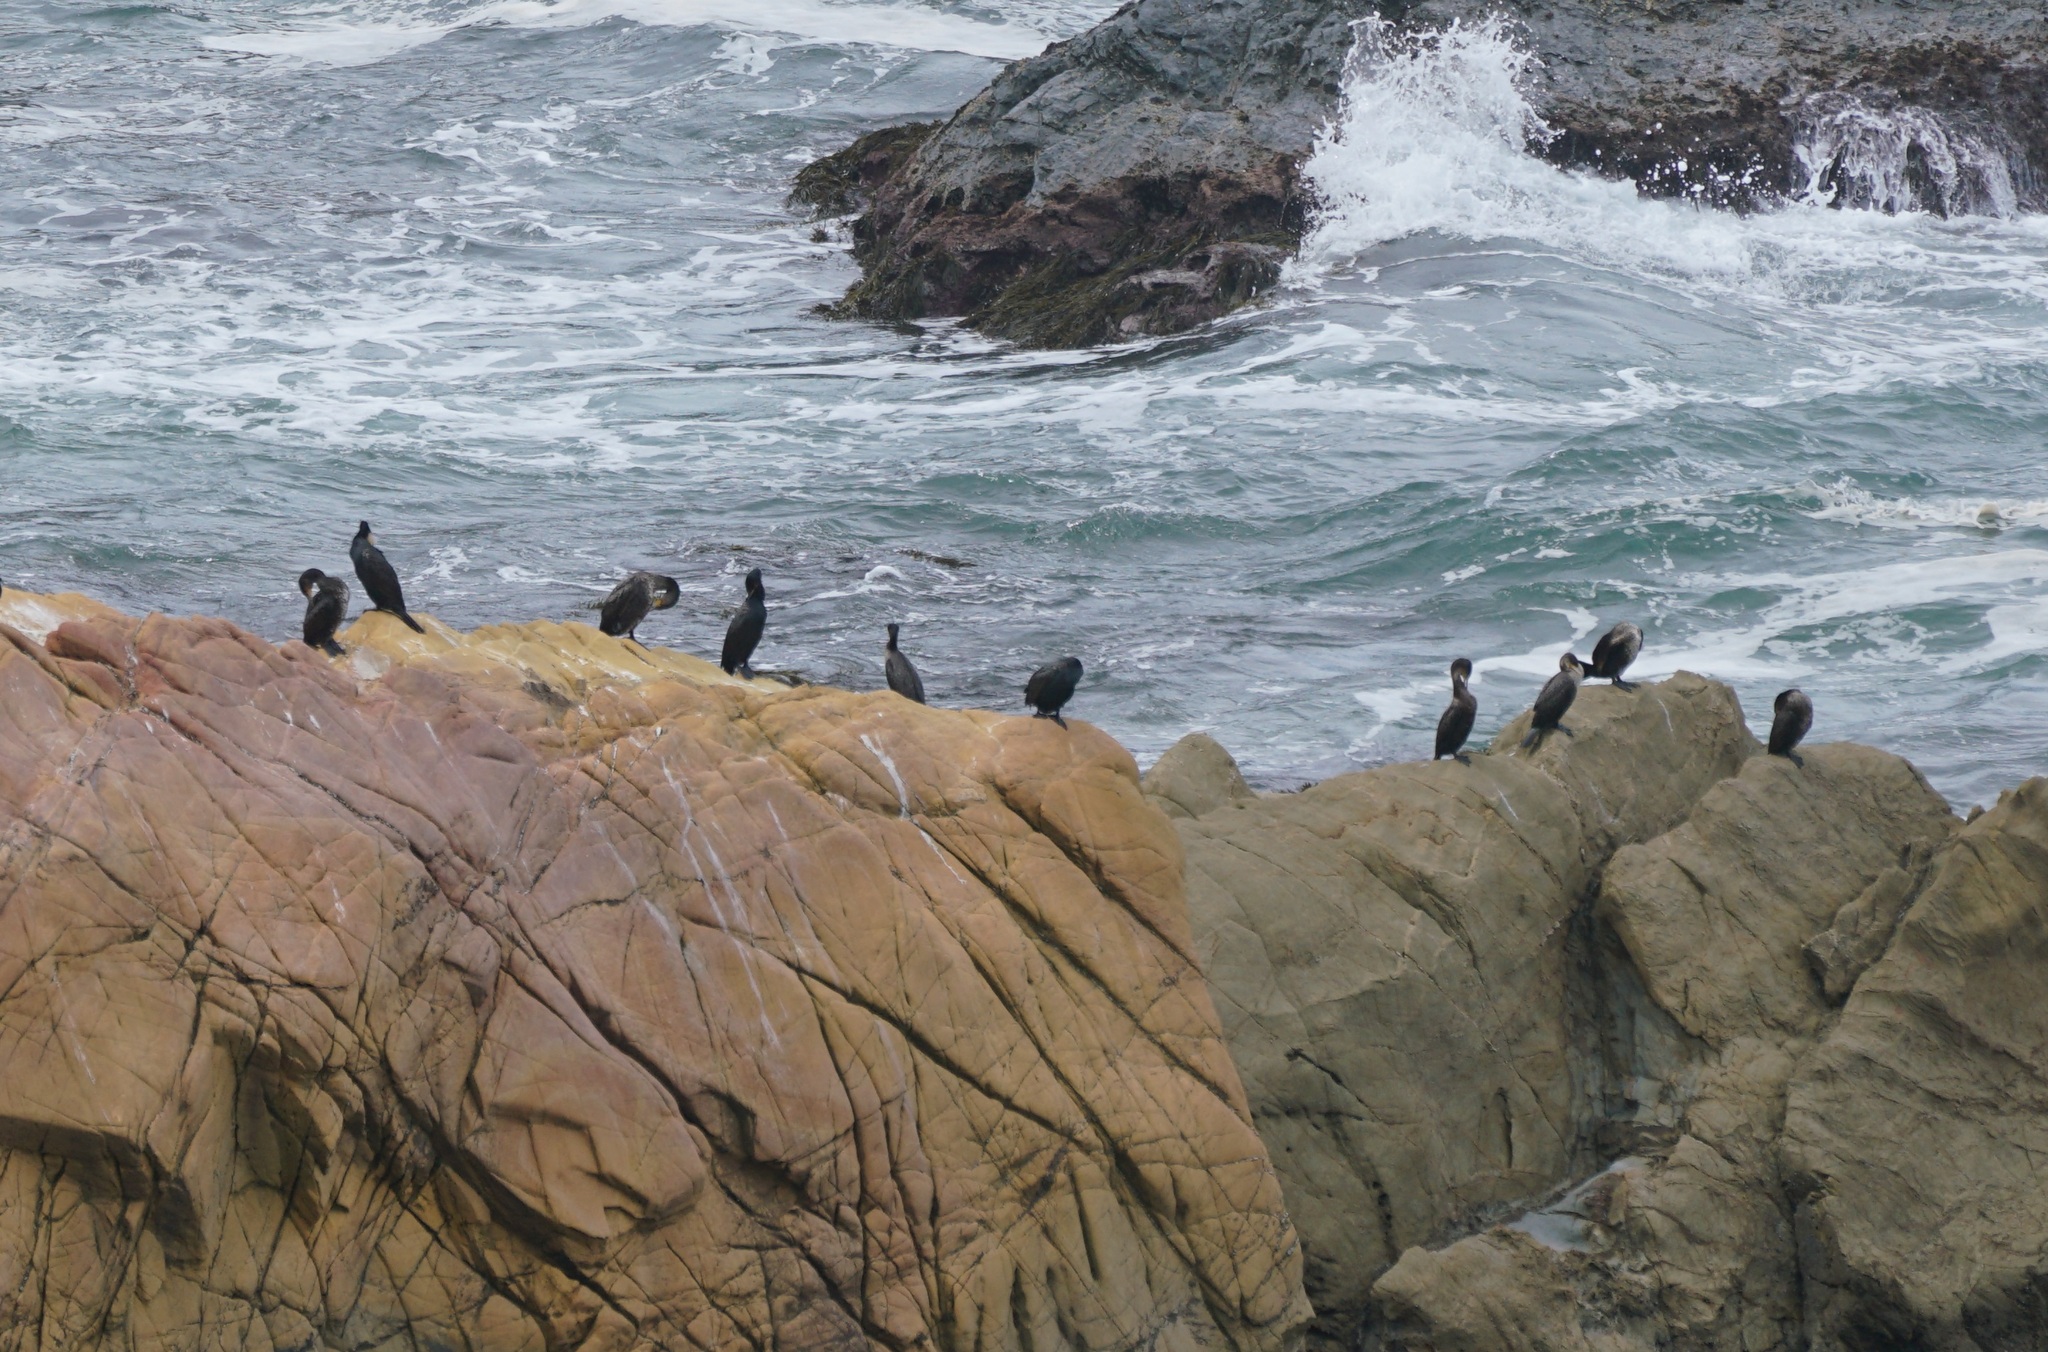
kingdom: Animalia
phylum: Chordata
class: Aves
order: Suliformes
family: Phalacrocoracidae
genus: Phalacrocorax
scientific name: Phalacrocorax carbo
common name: Great cormorant
